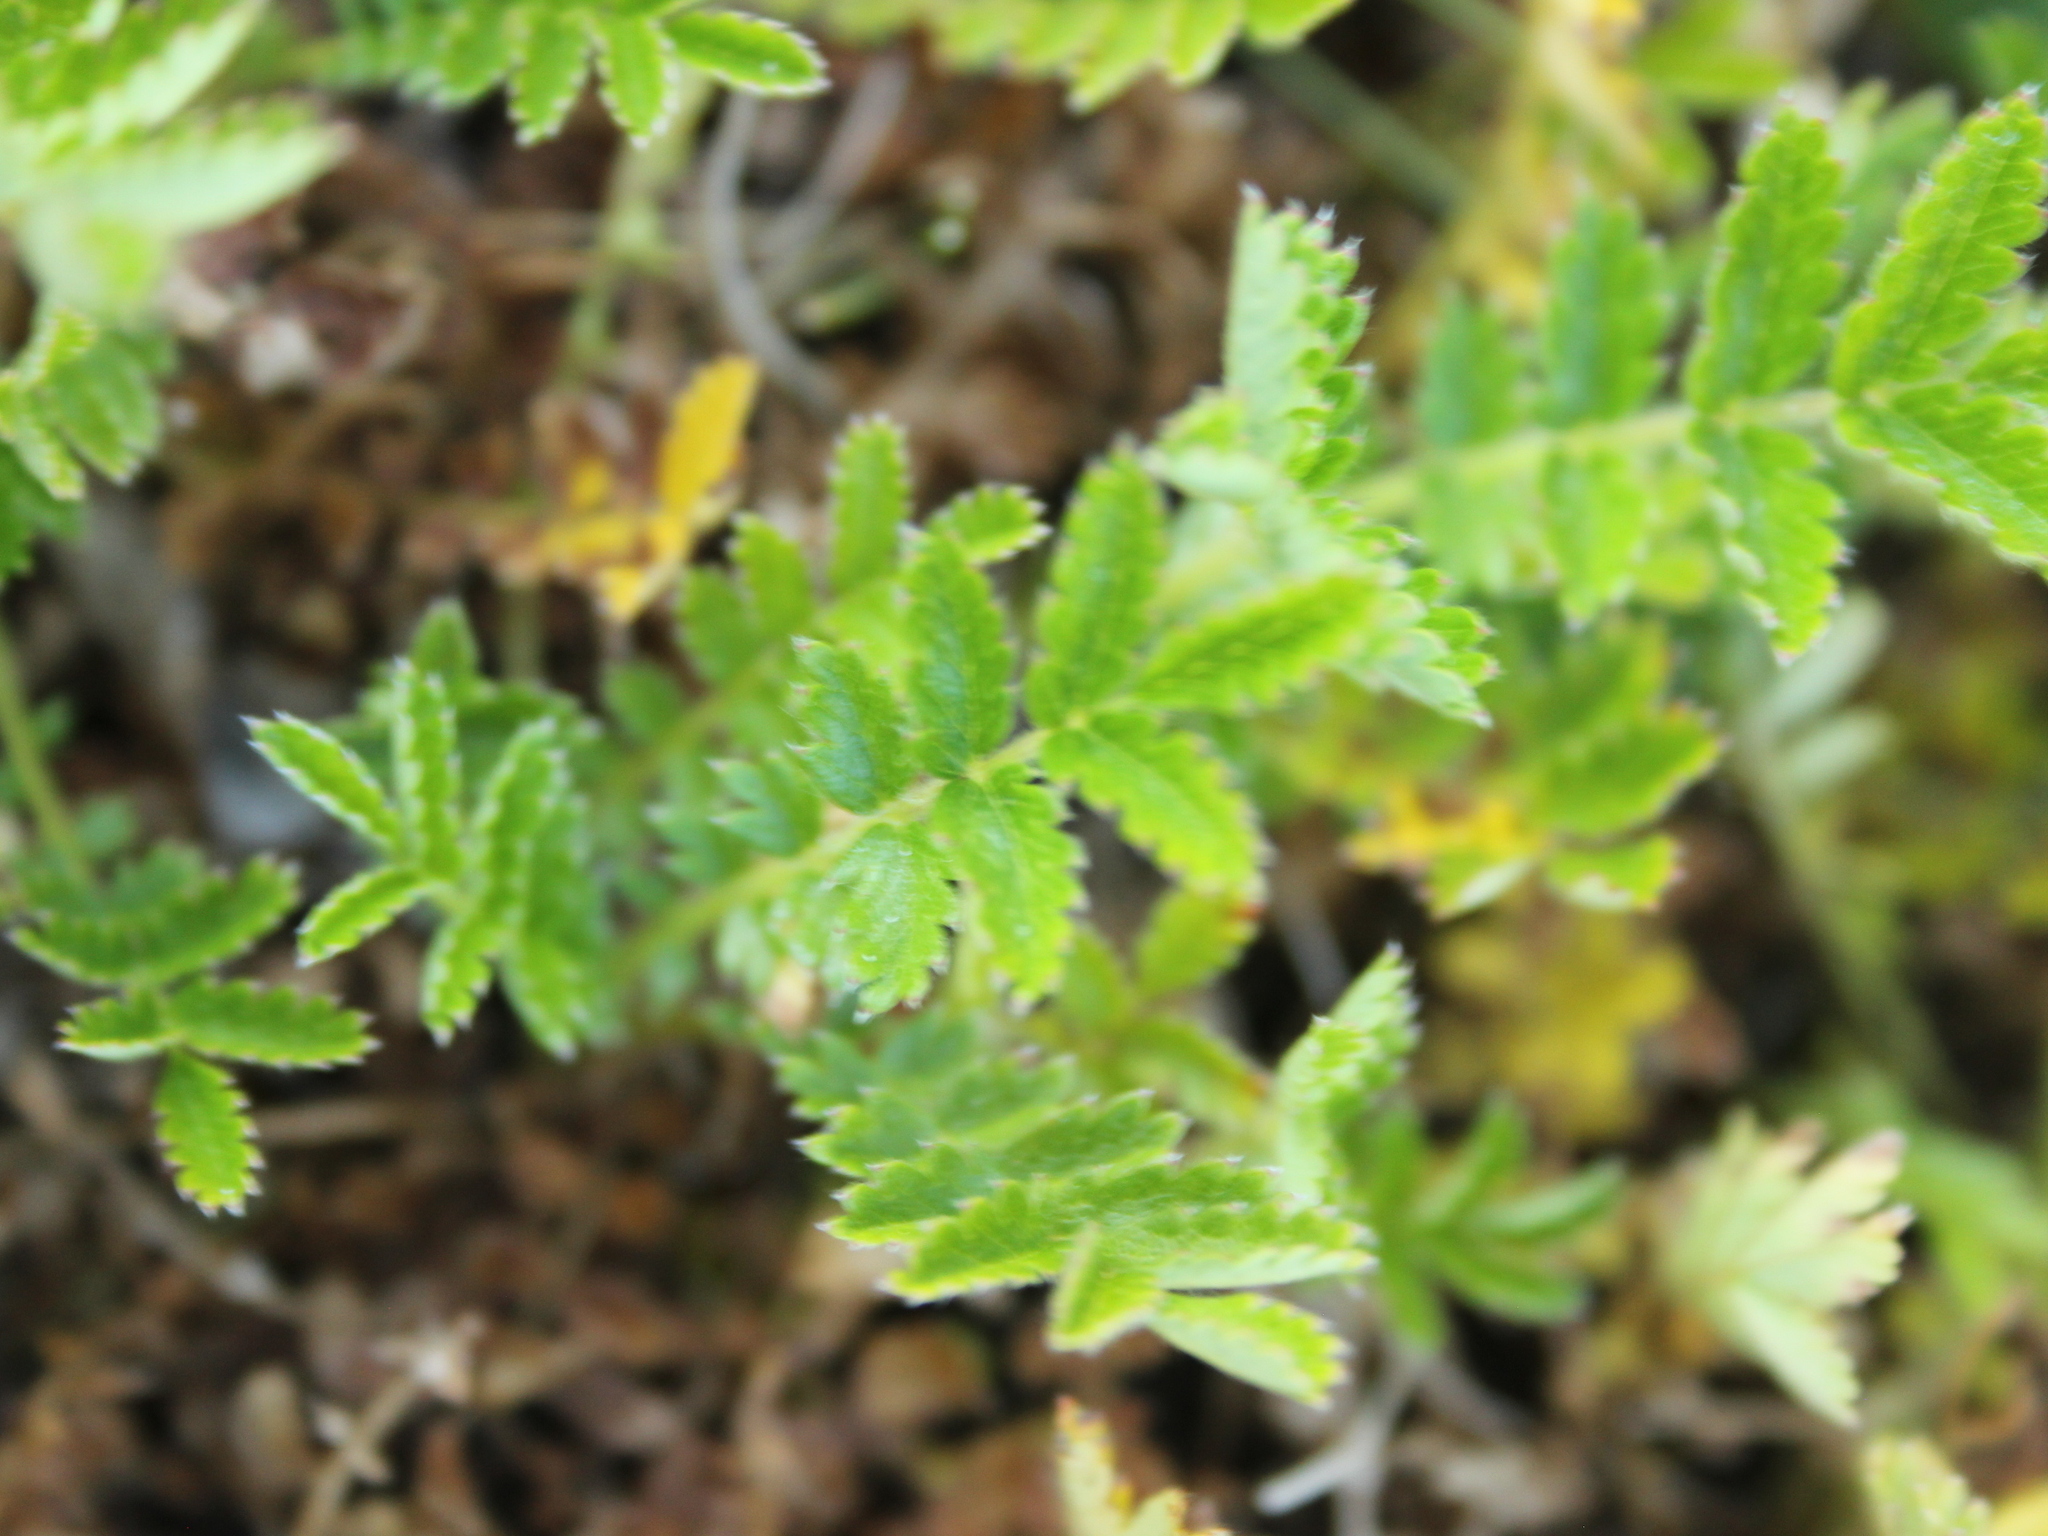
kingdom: Plantae
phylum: Tracheophyta
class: Magnoliopsida
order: Rosales
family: Rosaceae
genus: Acaena
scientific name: Acaena
